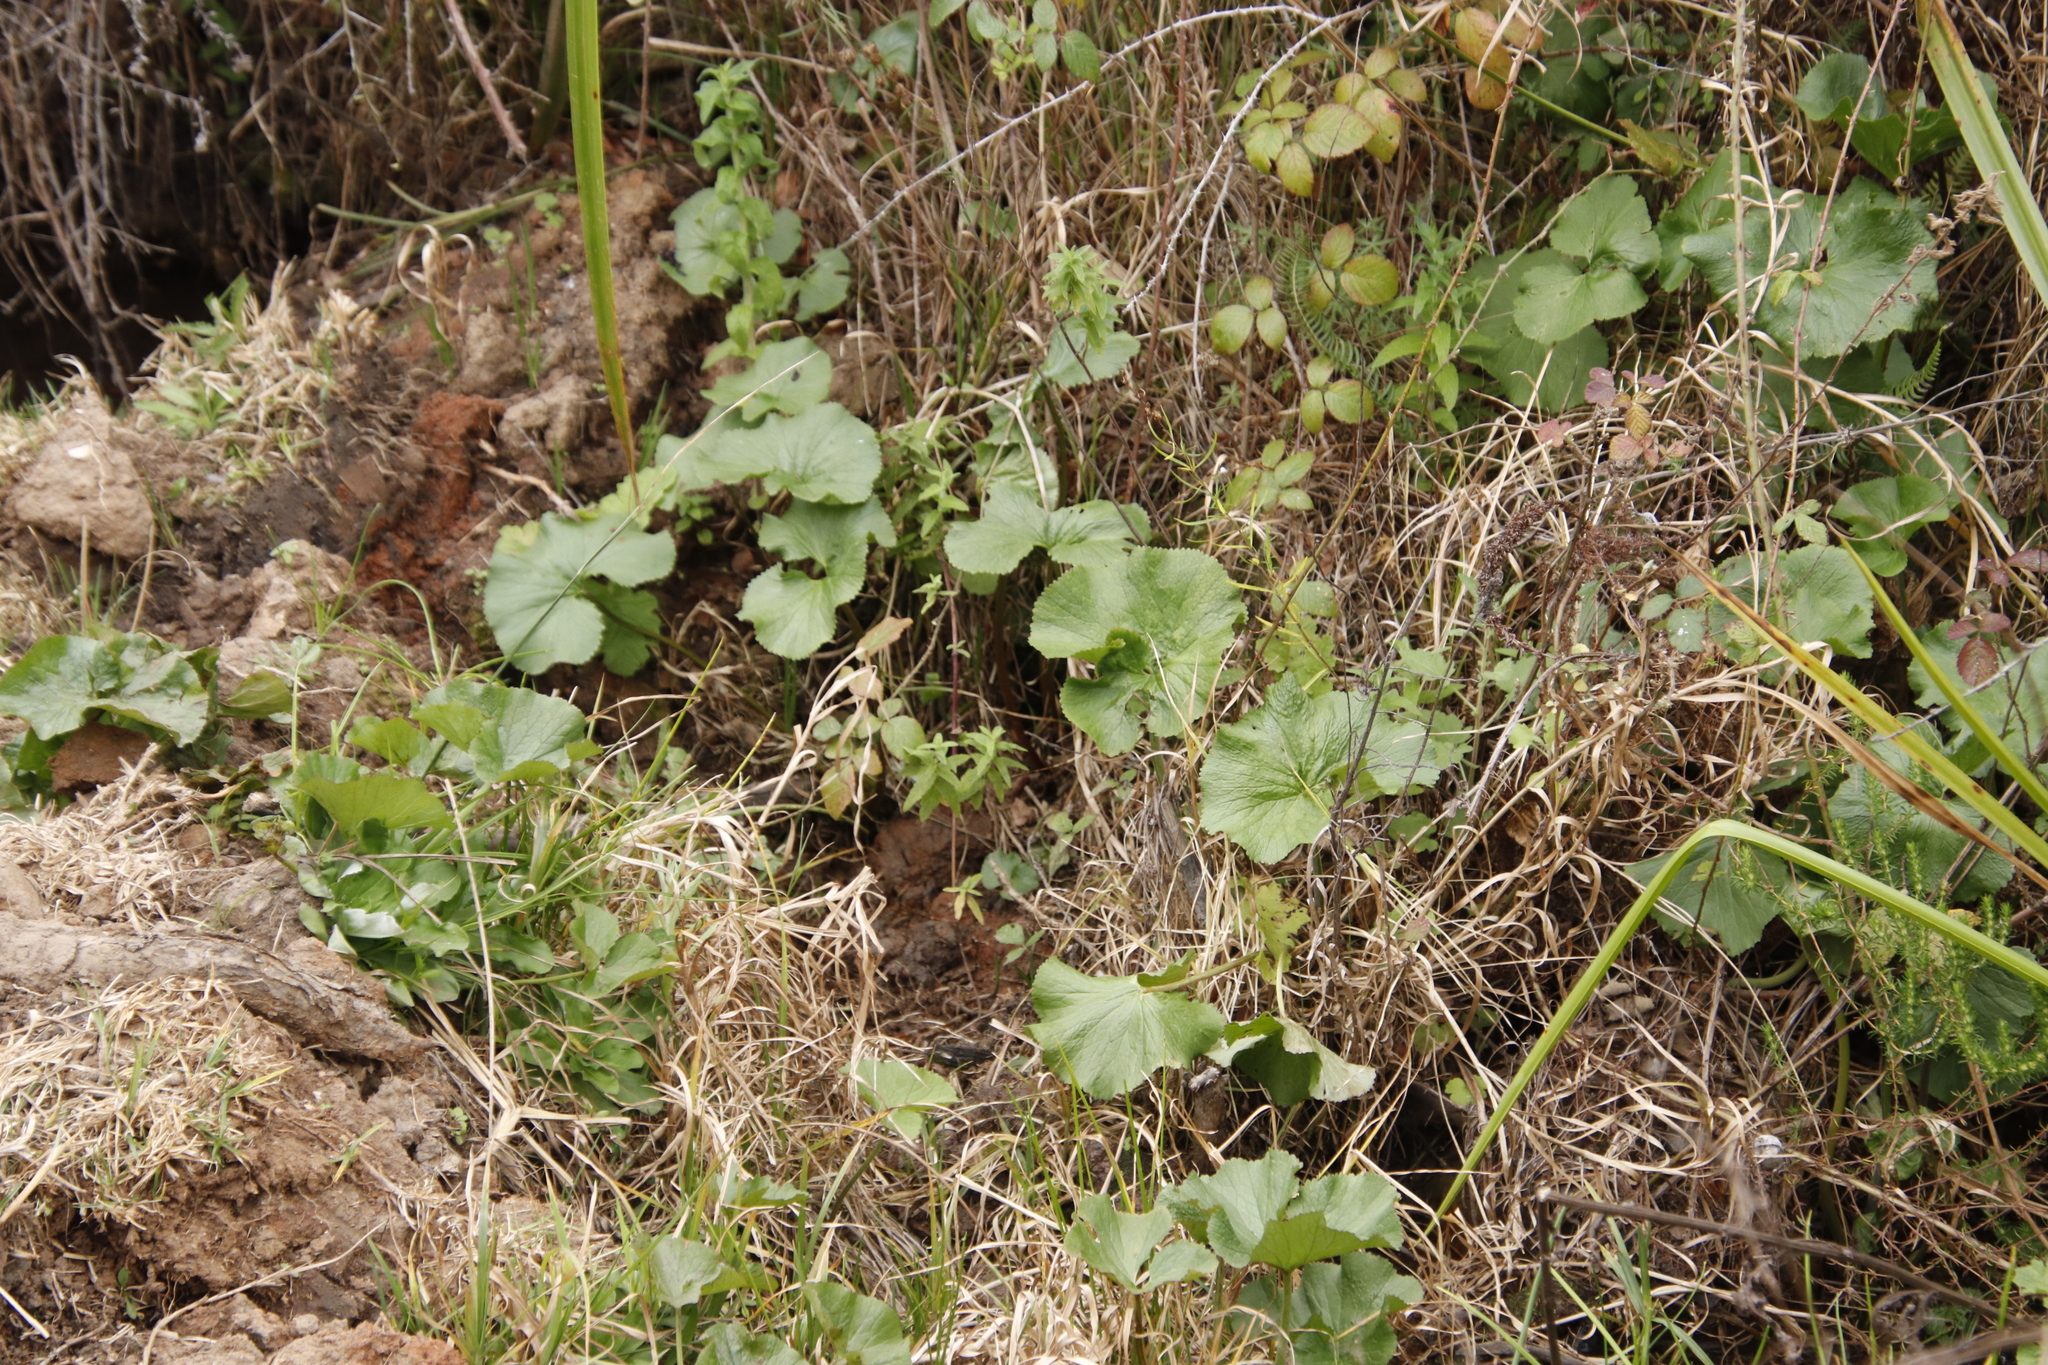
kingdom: Plantae
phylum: Tracheophyta
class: Magnoliopsida
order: Gunnerales
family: Gunneraceae
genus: Gunnera
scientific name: Gunnera perpensa
